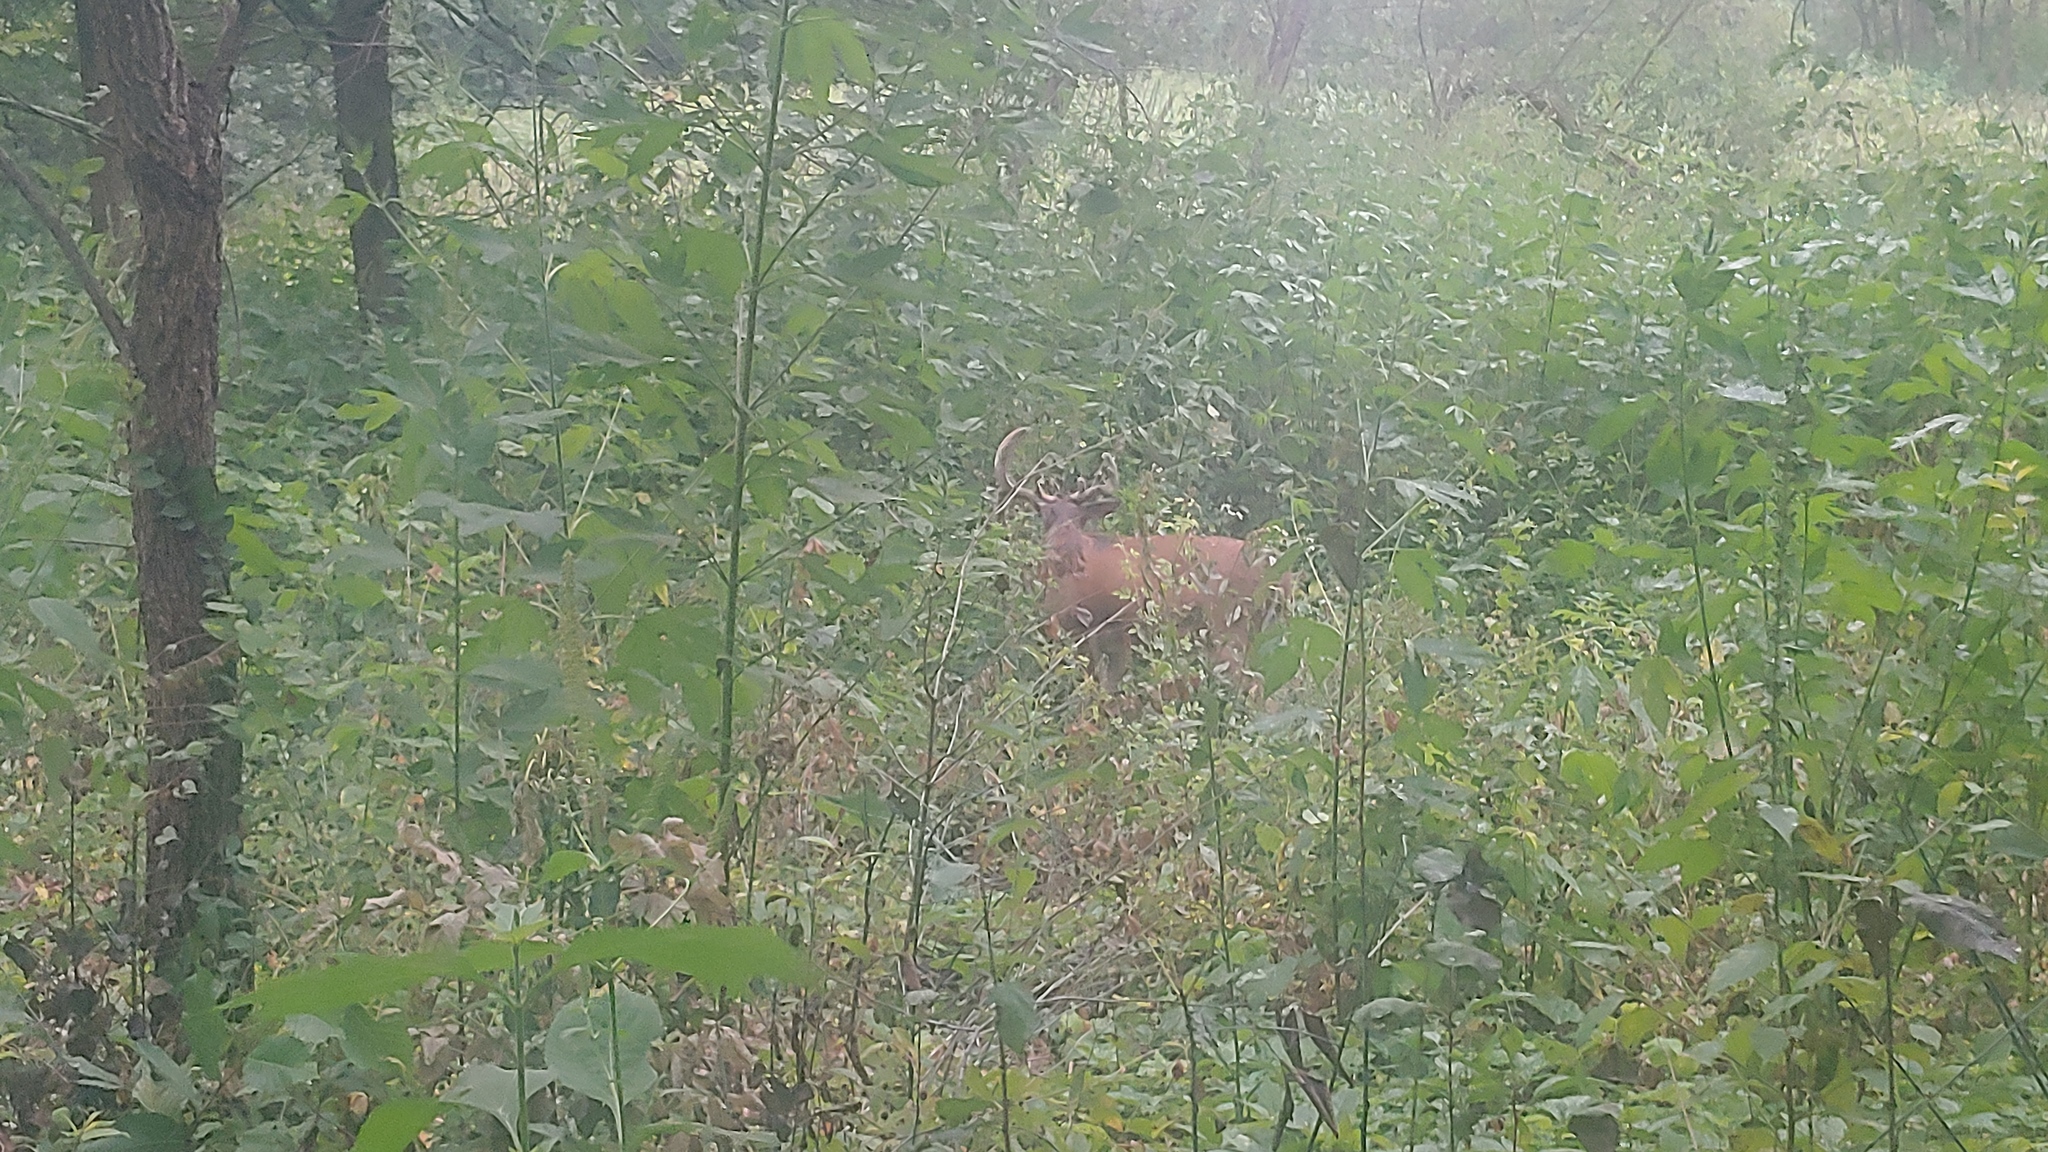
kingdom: Animalia
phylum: Chordata
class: Mammalia
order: Artiodactyla
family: Cervidae
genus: Odocoileus
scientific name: Odocoileus virginianus
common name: White-tailed deer
